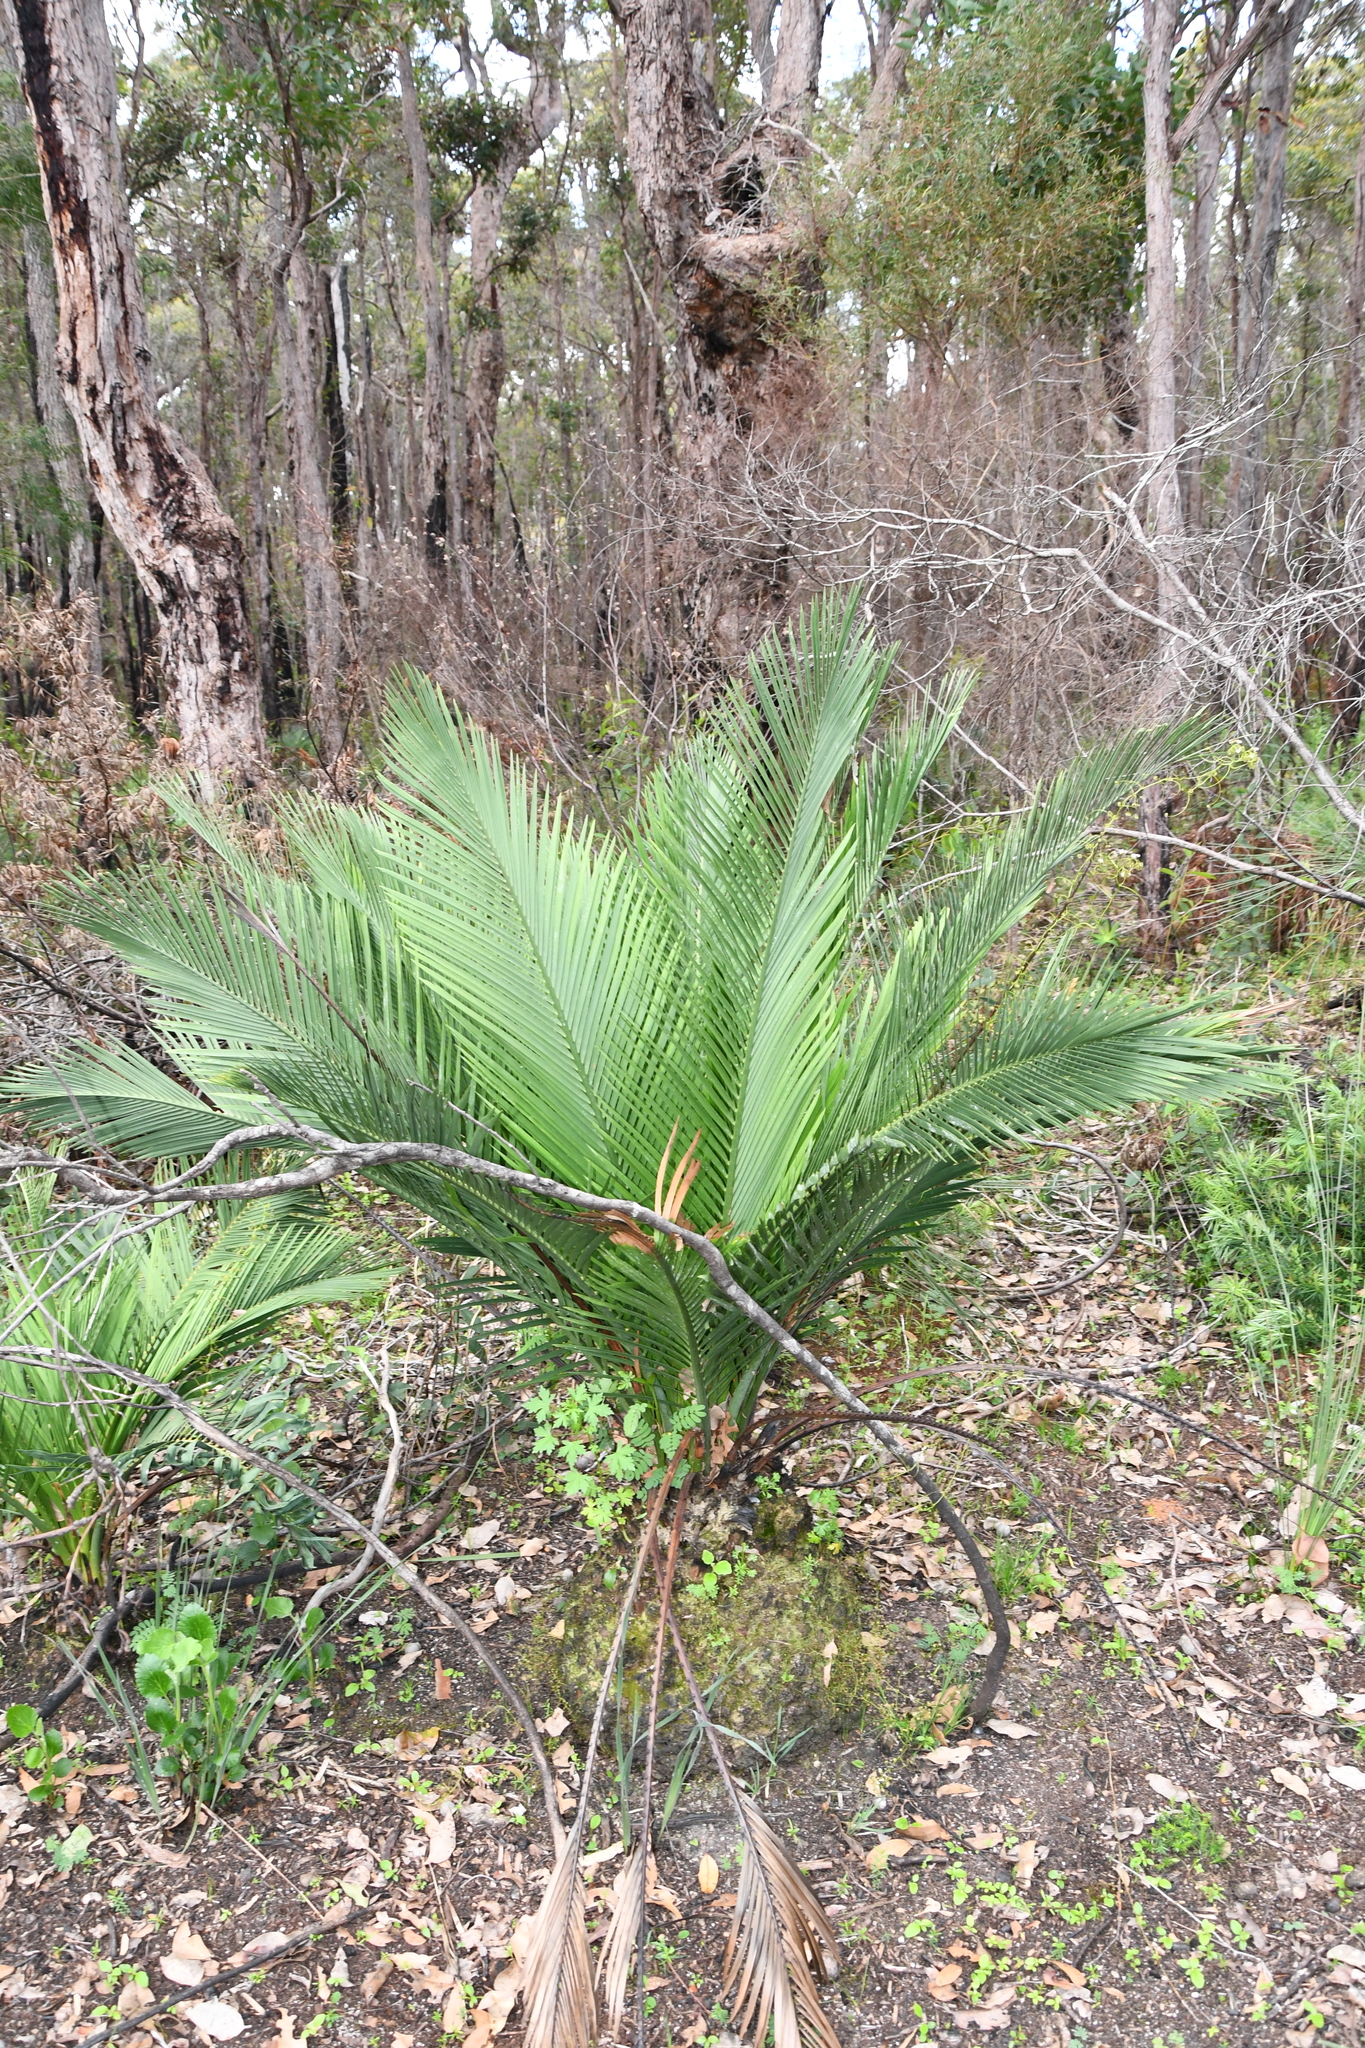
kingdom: Plantae
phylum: Tracheophyta
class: Cycadopsida
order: Cycadales
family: Zamiaceae
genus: Macrozamia
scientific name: Macrozamia riedlei
